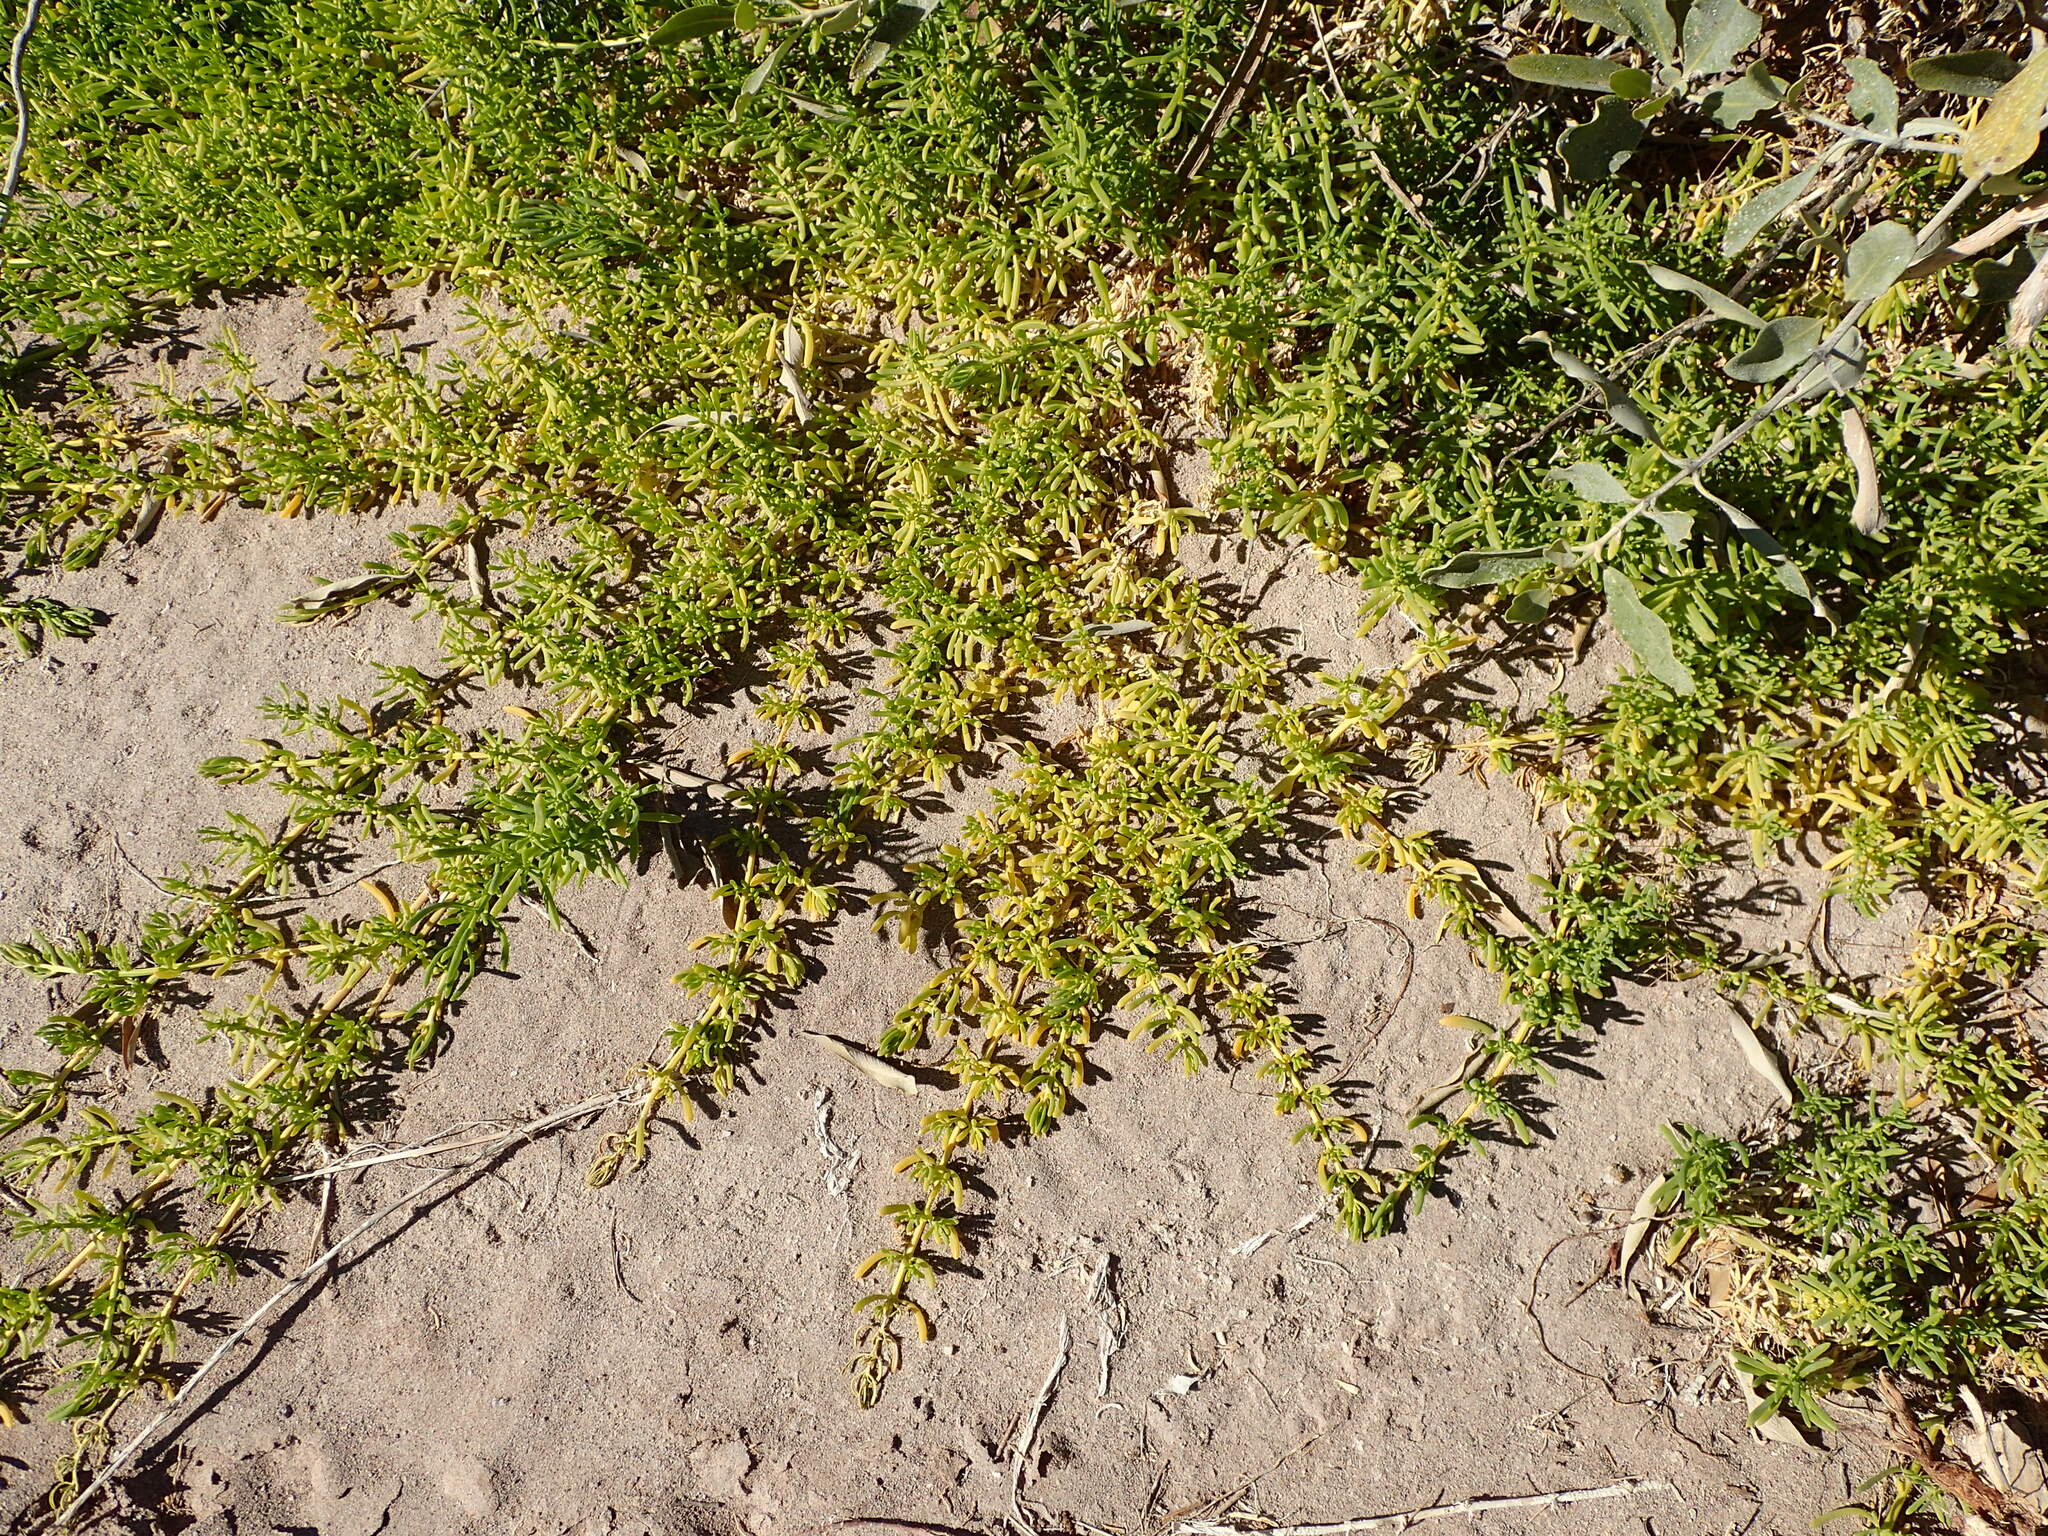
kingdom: Plantae
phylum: Tracheophyta
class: Magnoliopsida
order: Brassicales
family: Bataceae
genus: Batis
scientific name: Batis maritima
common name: Turtleweed
